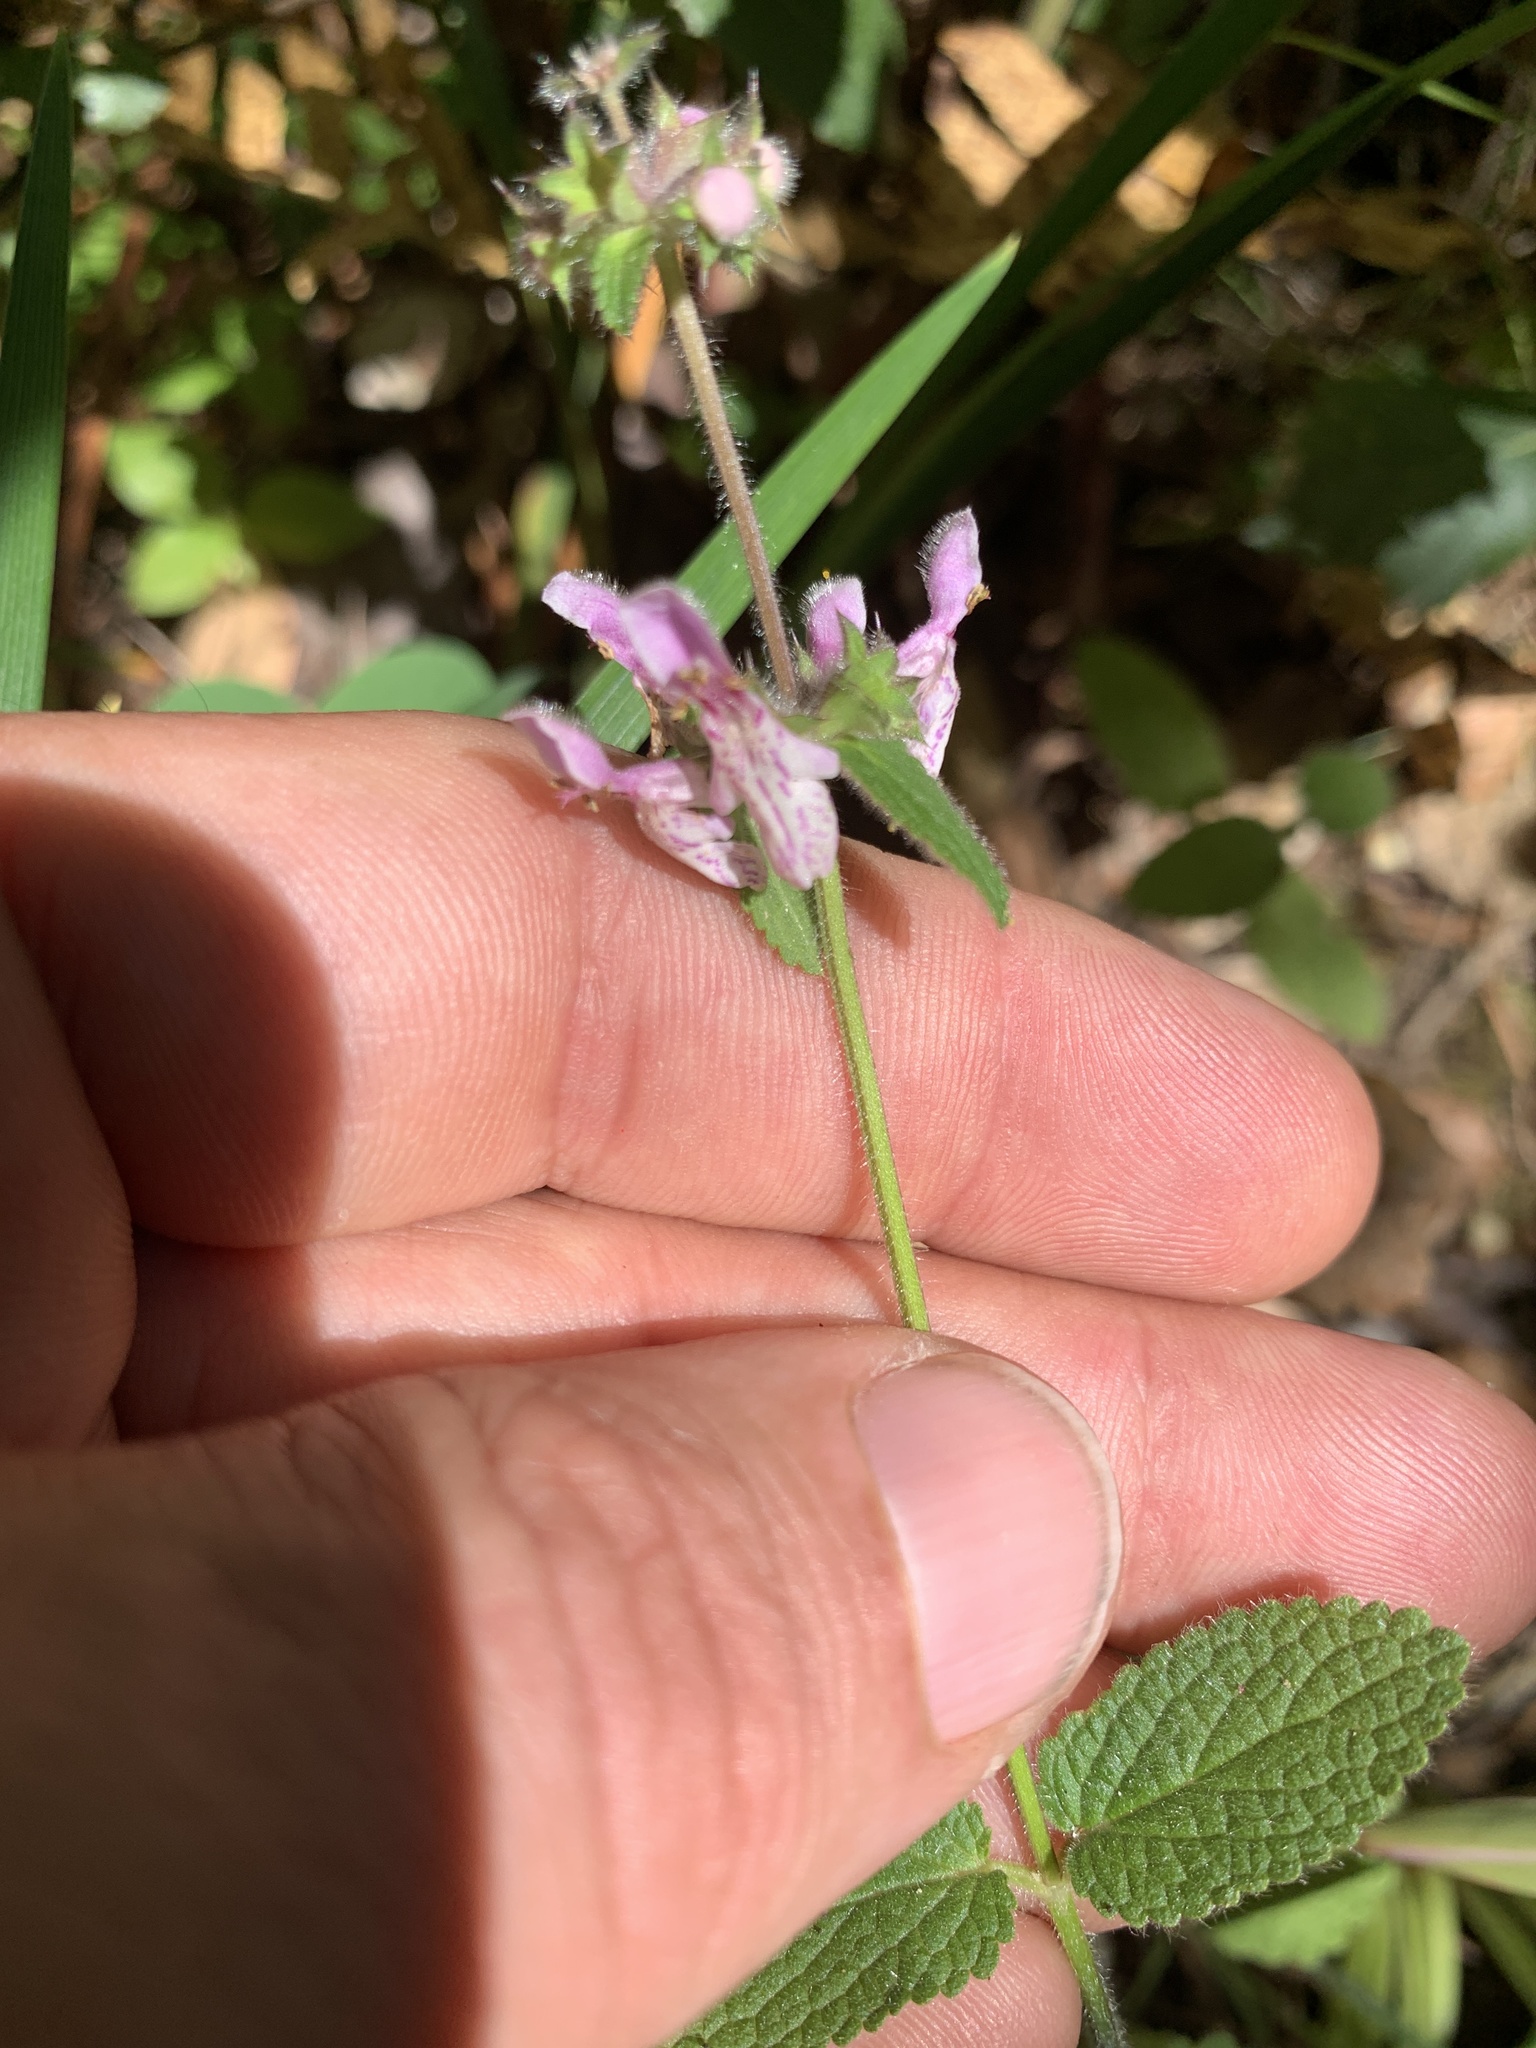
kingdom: Plantae
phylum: Tracheophyta
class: Magnoliopsida
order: Lamiales
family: Lamiaceae
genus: Stachys
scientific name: Stachys rigida
